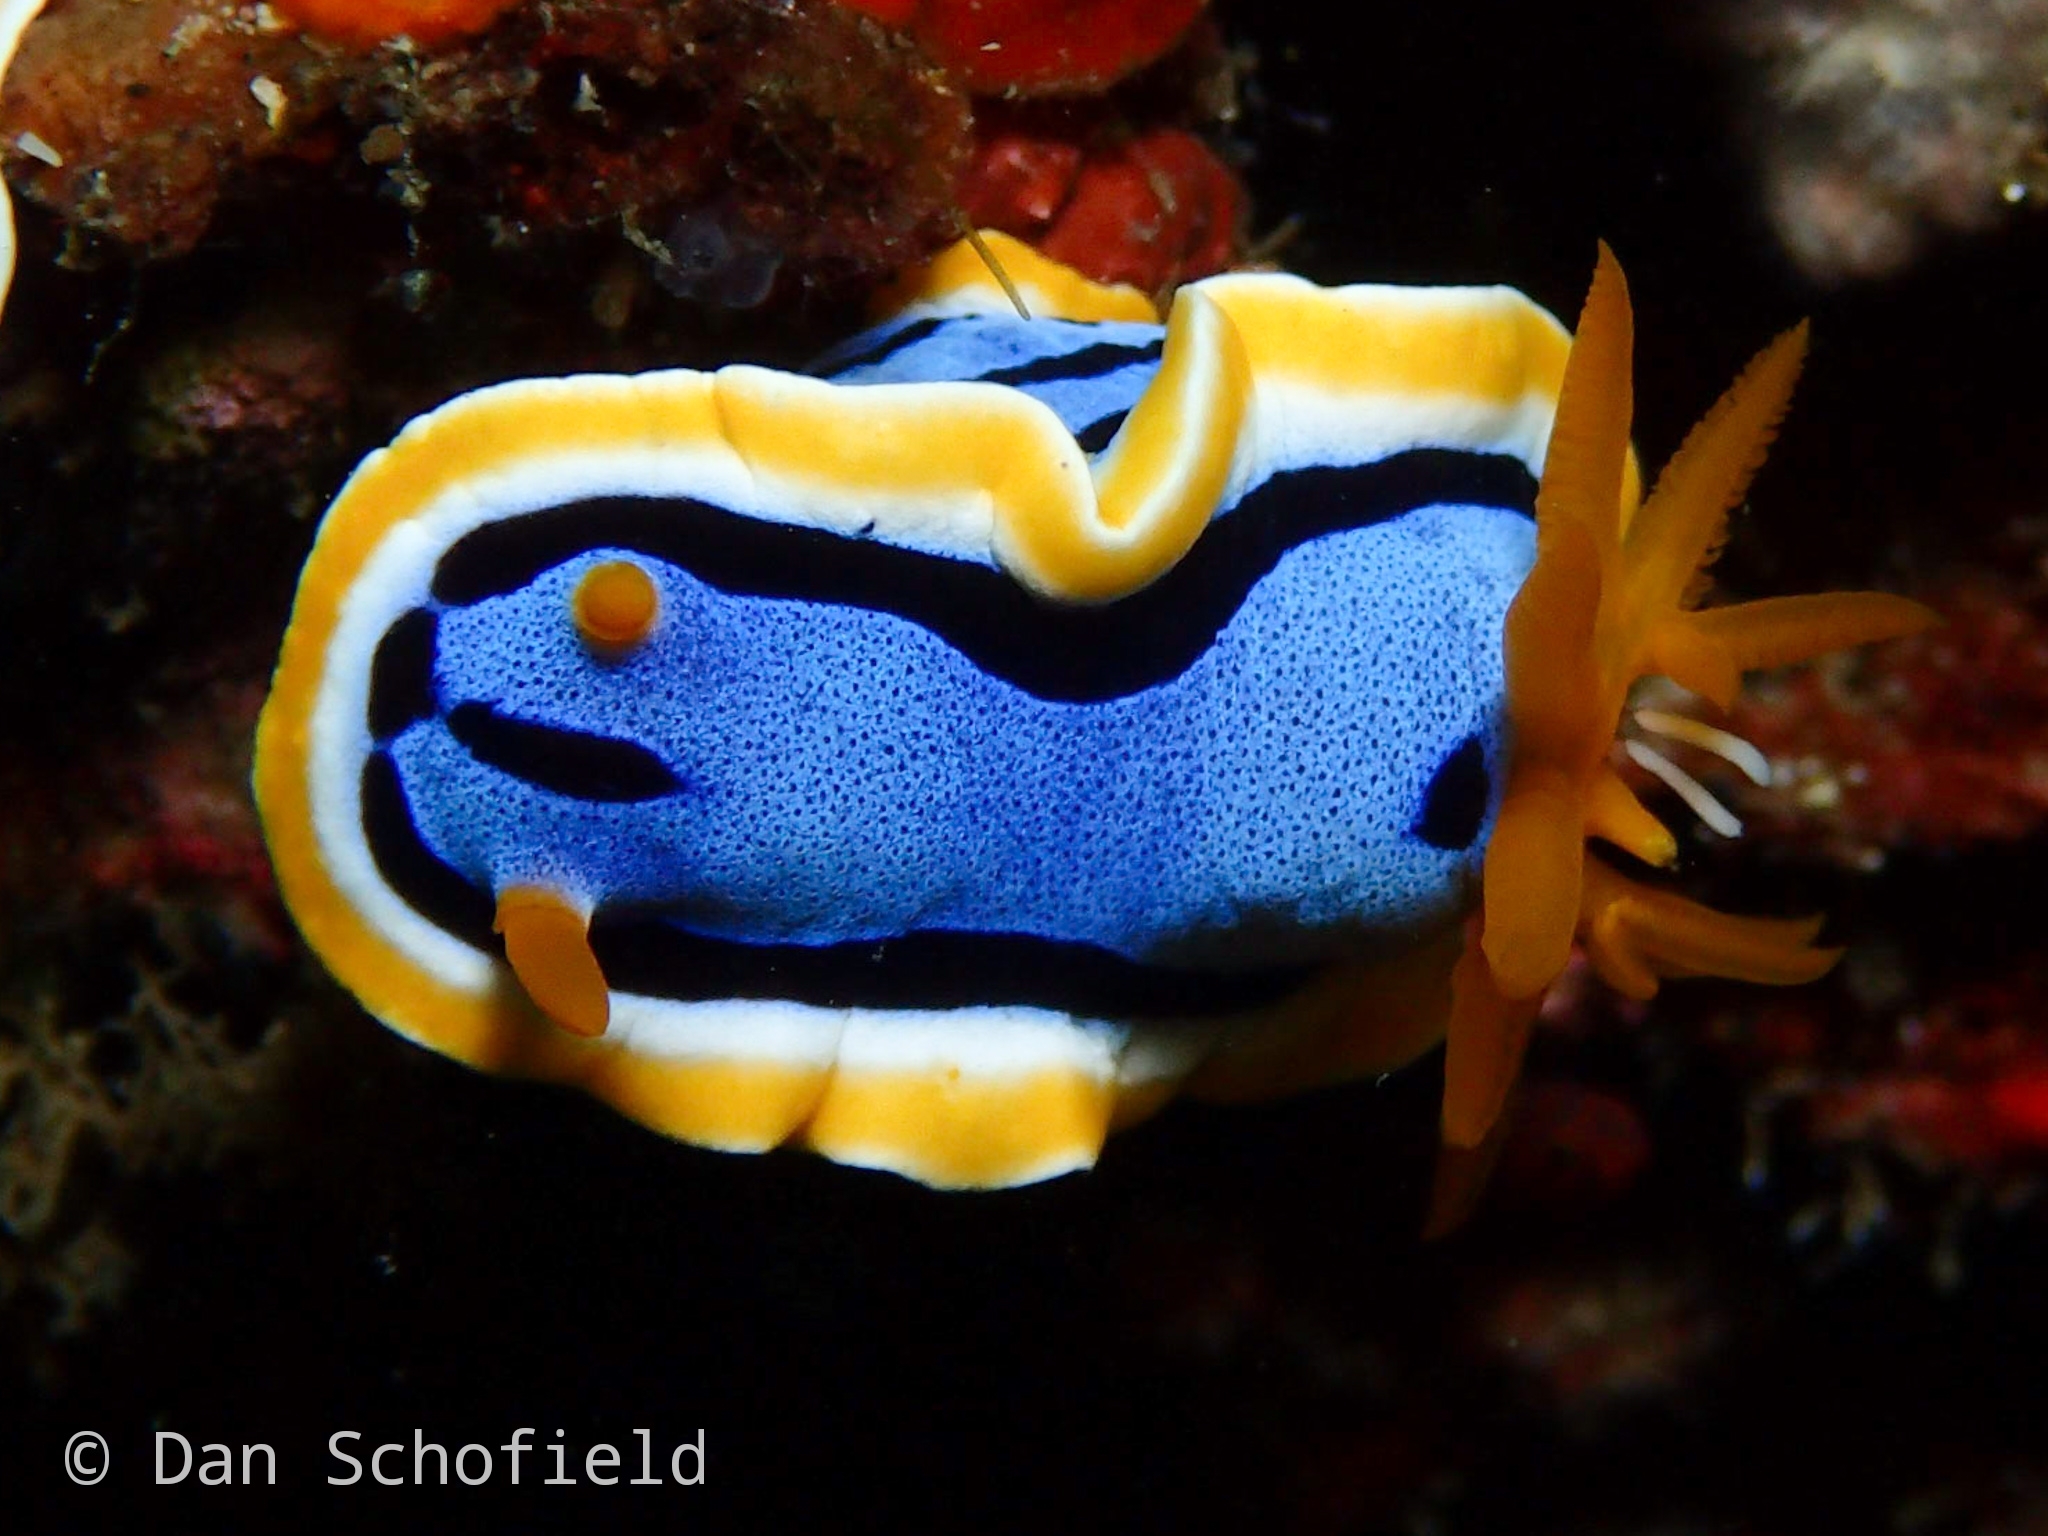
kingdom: Animalia
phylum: Mollusca
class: Gastropoda
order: Nudibranchia
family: Chromodorididae
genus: Chromodoris
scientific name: Chromodoris annae
